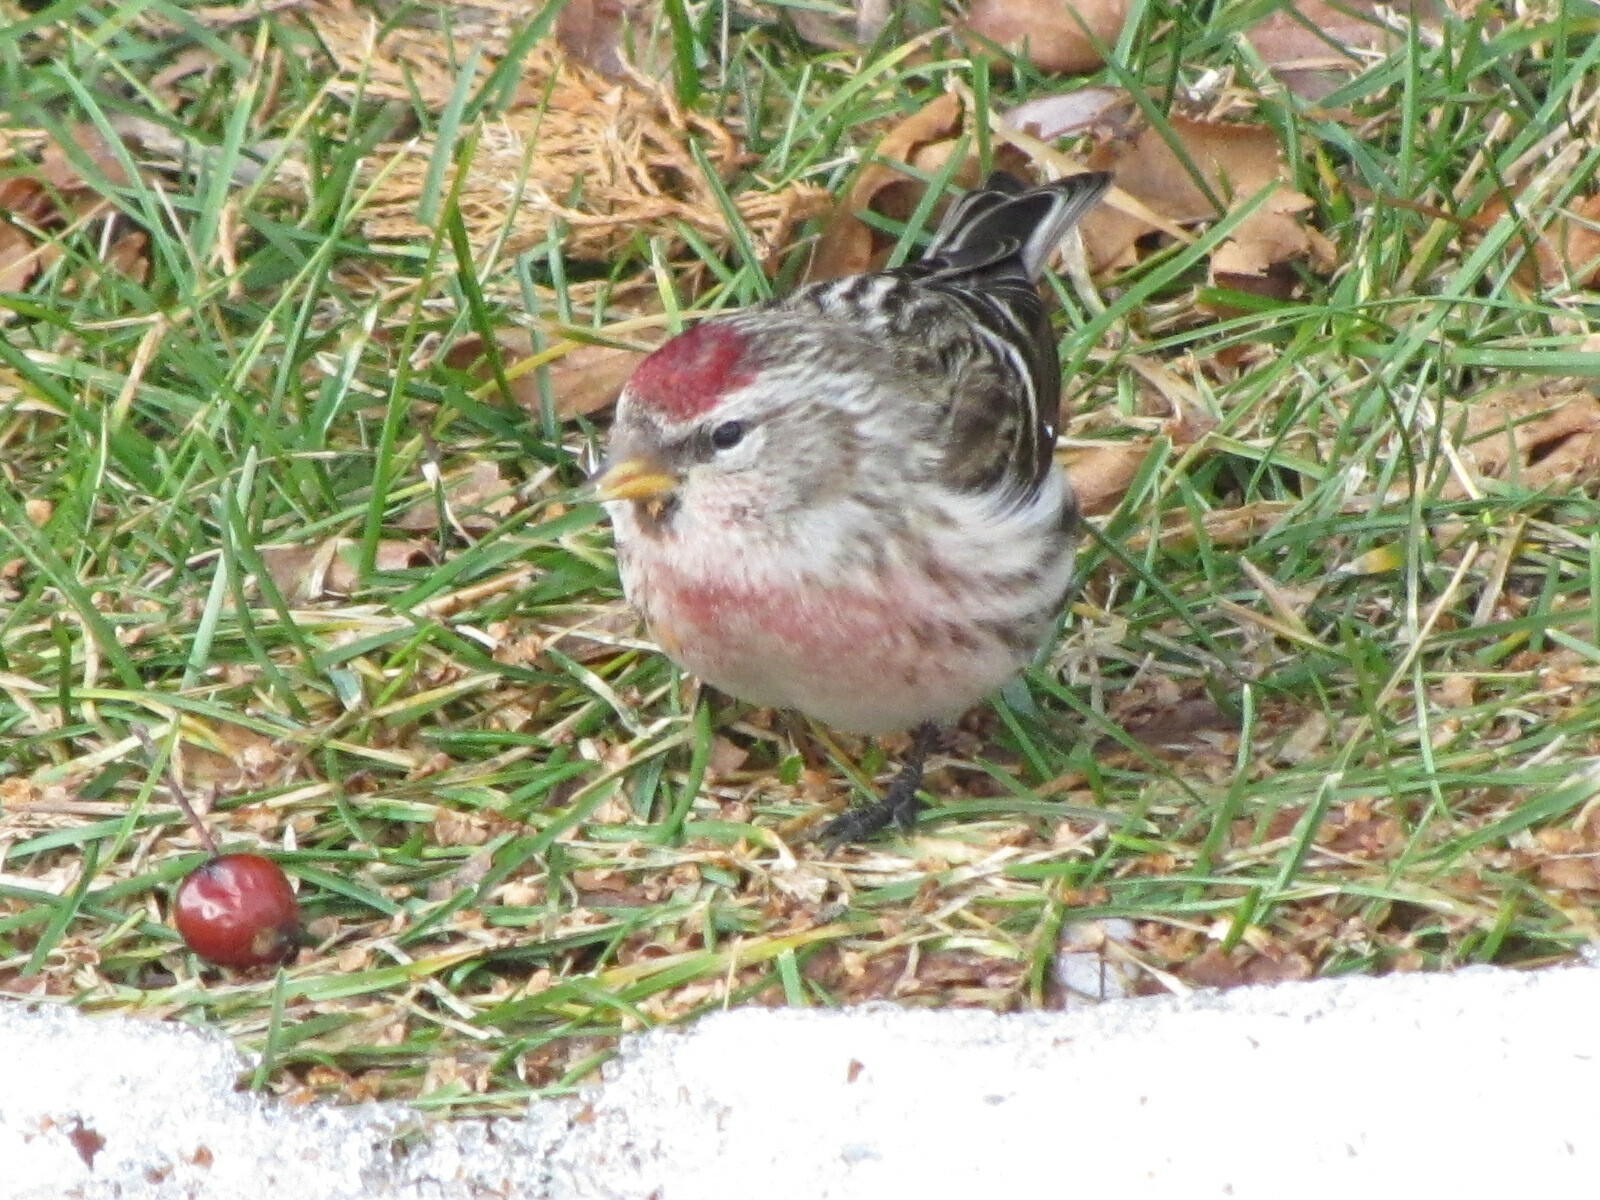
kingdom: Animalia
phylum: Chordata
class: Aves
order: Passeriformes
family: Fringillidae
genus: Acanthis
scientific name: Acanthis flammea
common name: Common redpoll
